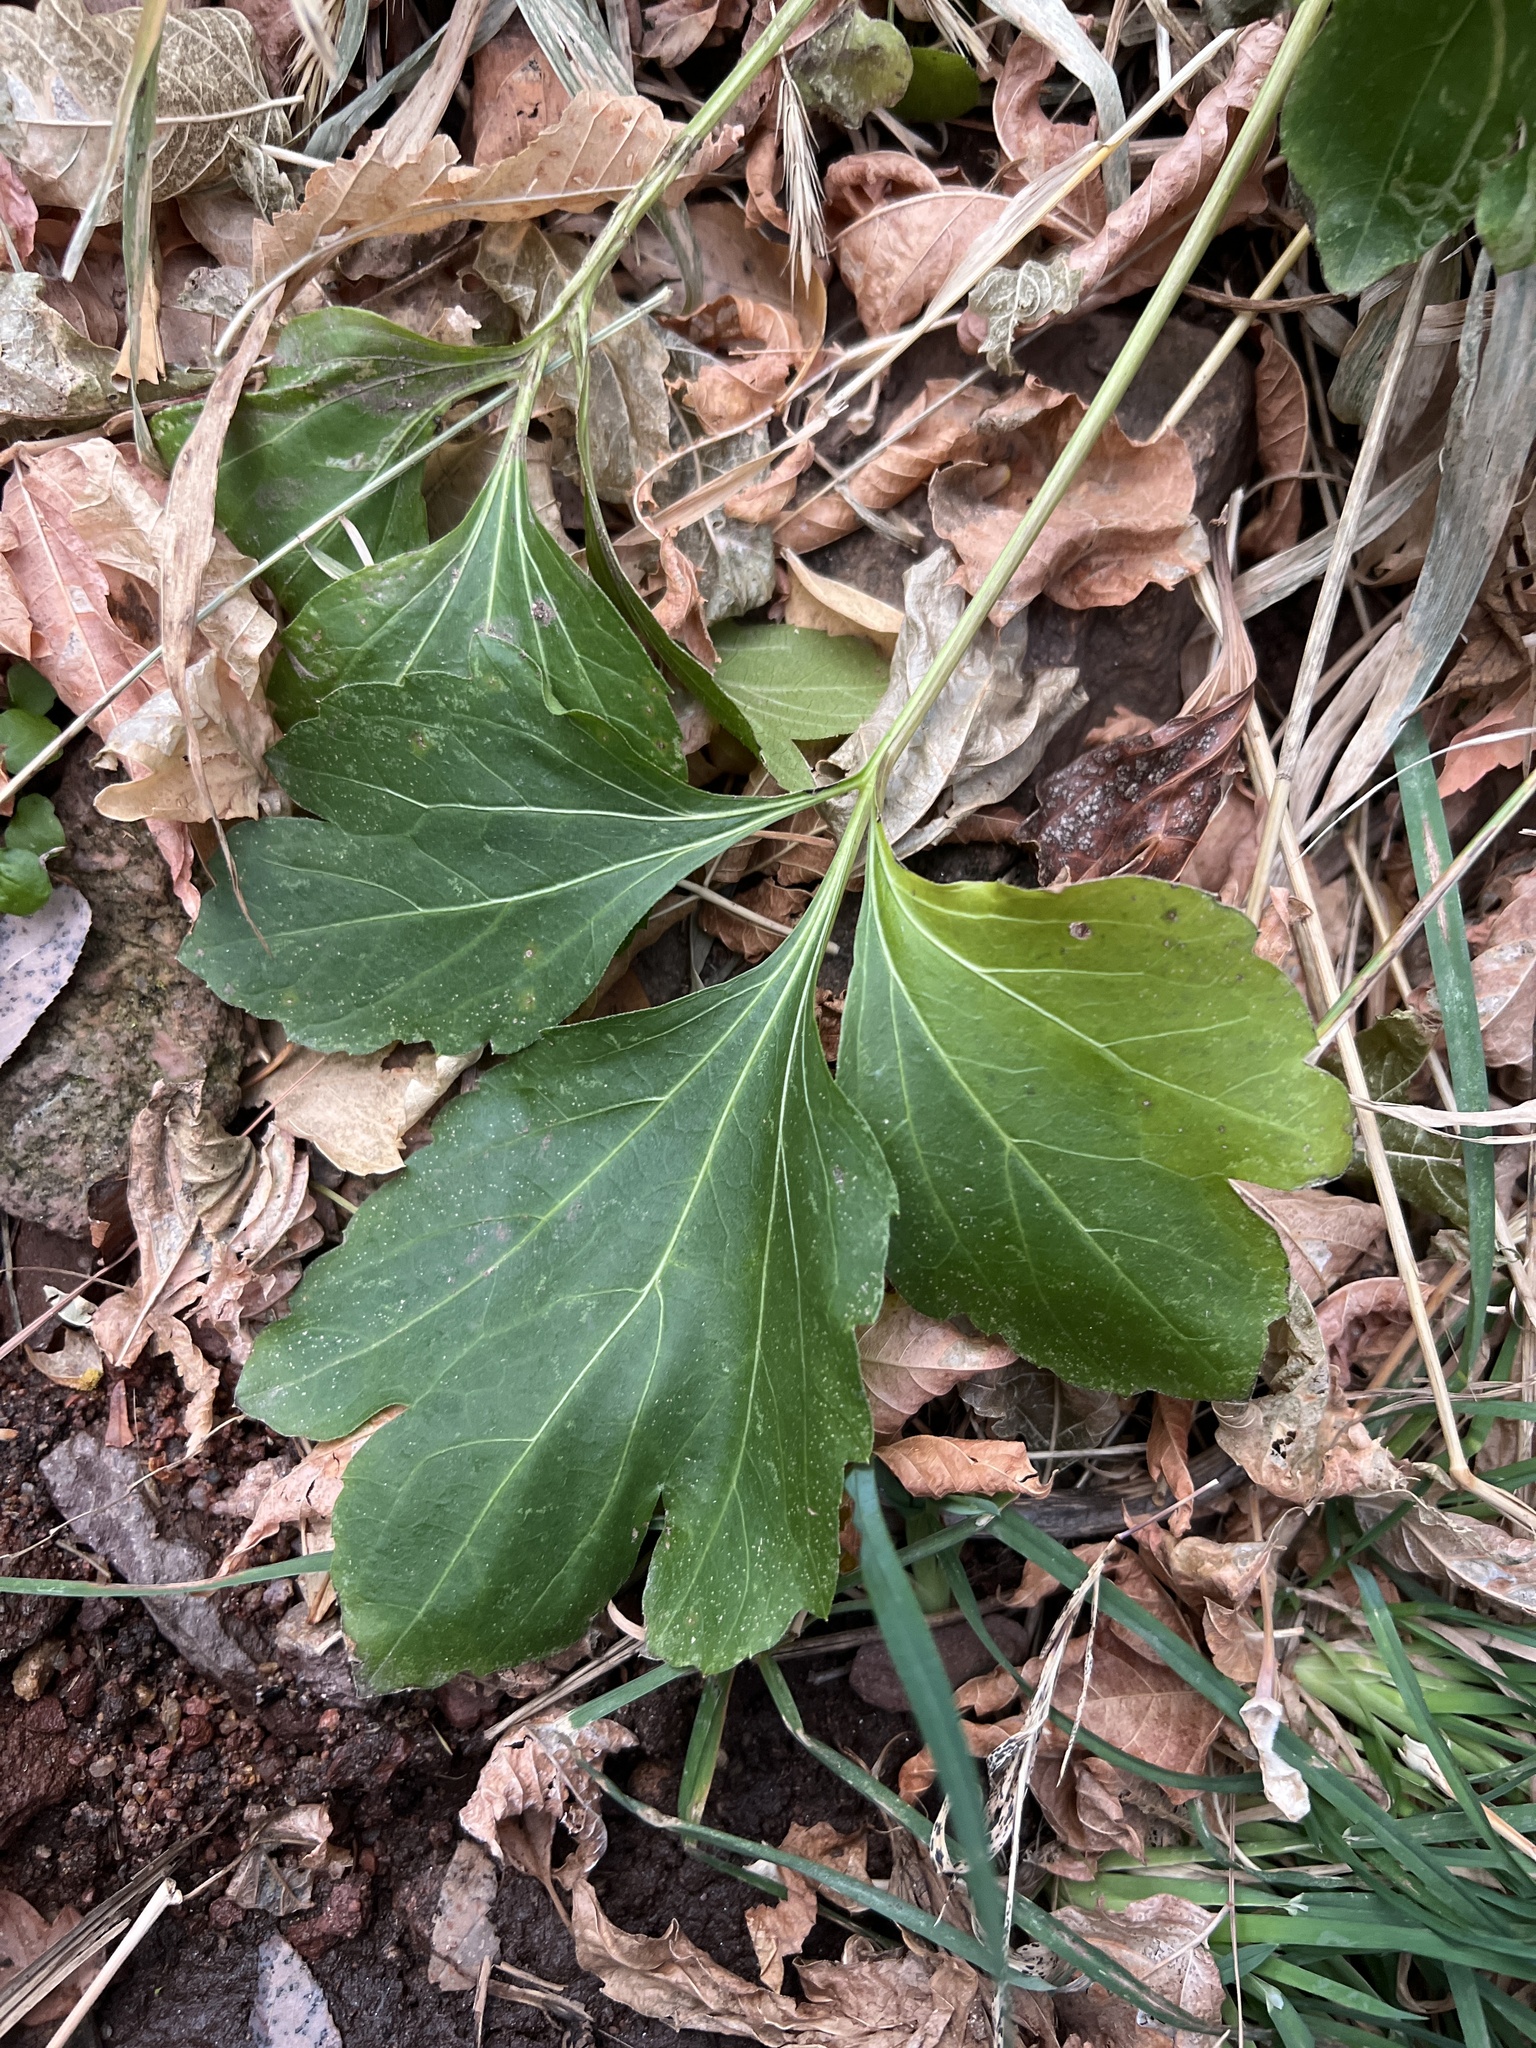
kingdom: Plantae
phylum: Tracheophyta
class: Magnoliopsida
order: Asterales
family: Asteraceae
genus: Rudbeckia
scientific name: Rudbeckia laciniata
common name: Coneflower
